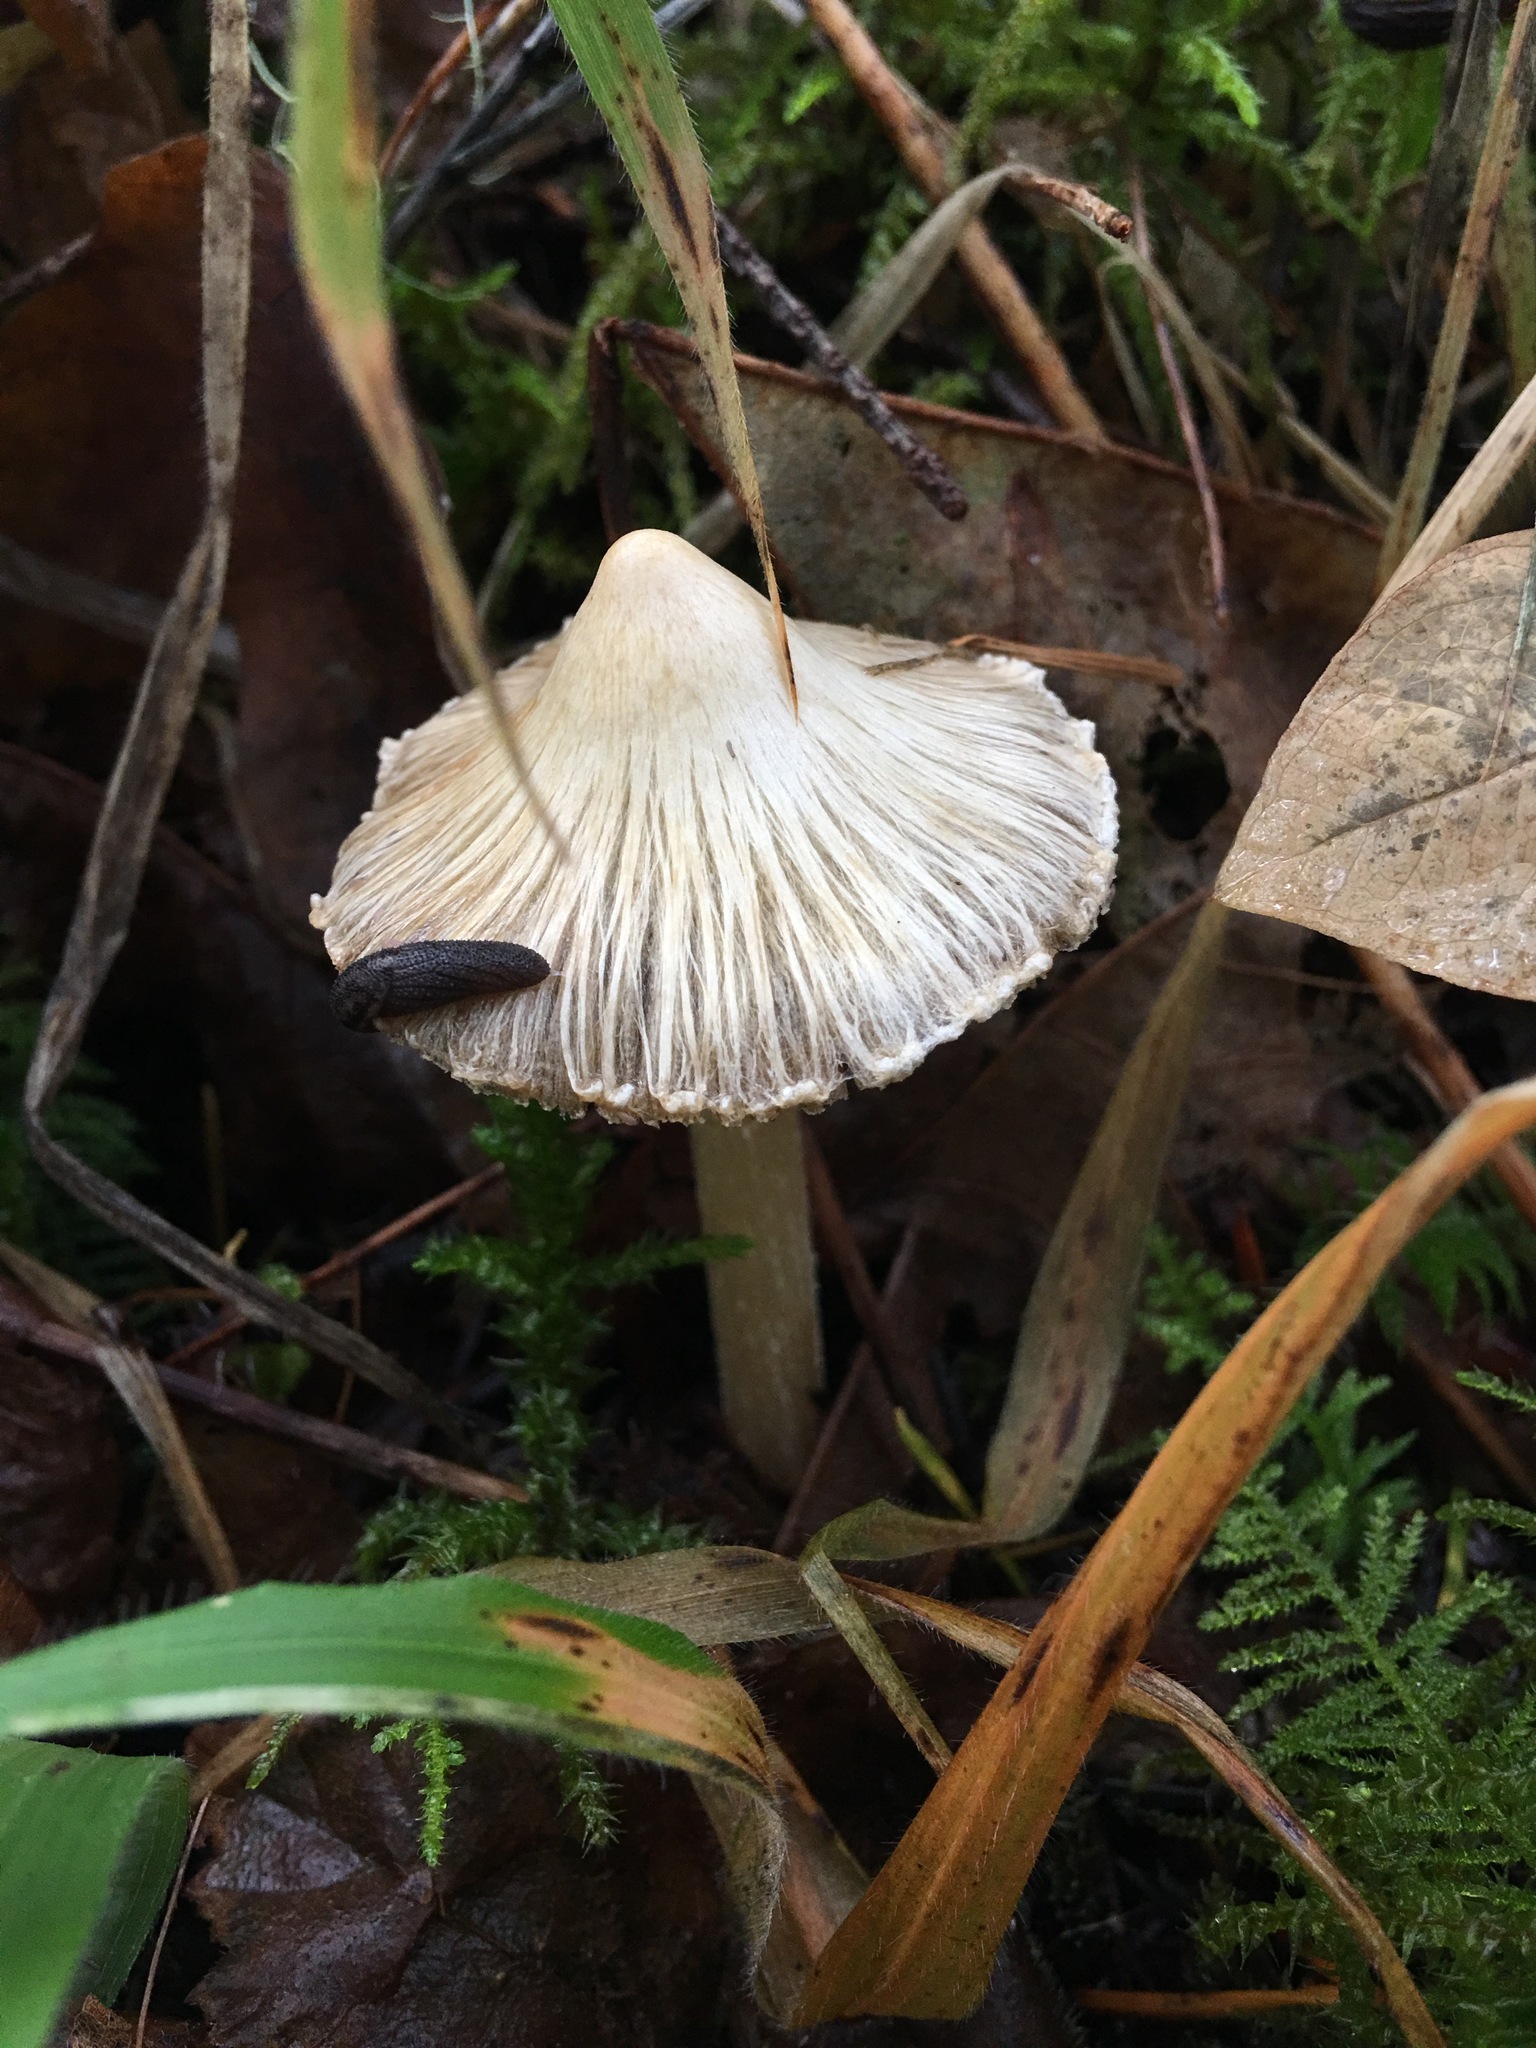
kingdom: Animalia
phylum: Mollusca
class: Gastropoda
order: Stylommatophora
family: Ariolimacidae
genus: Prophysaon
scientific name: Prophysaon dubium
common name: Papillose taildropper
